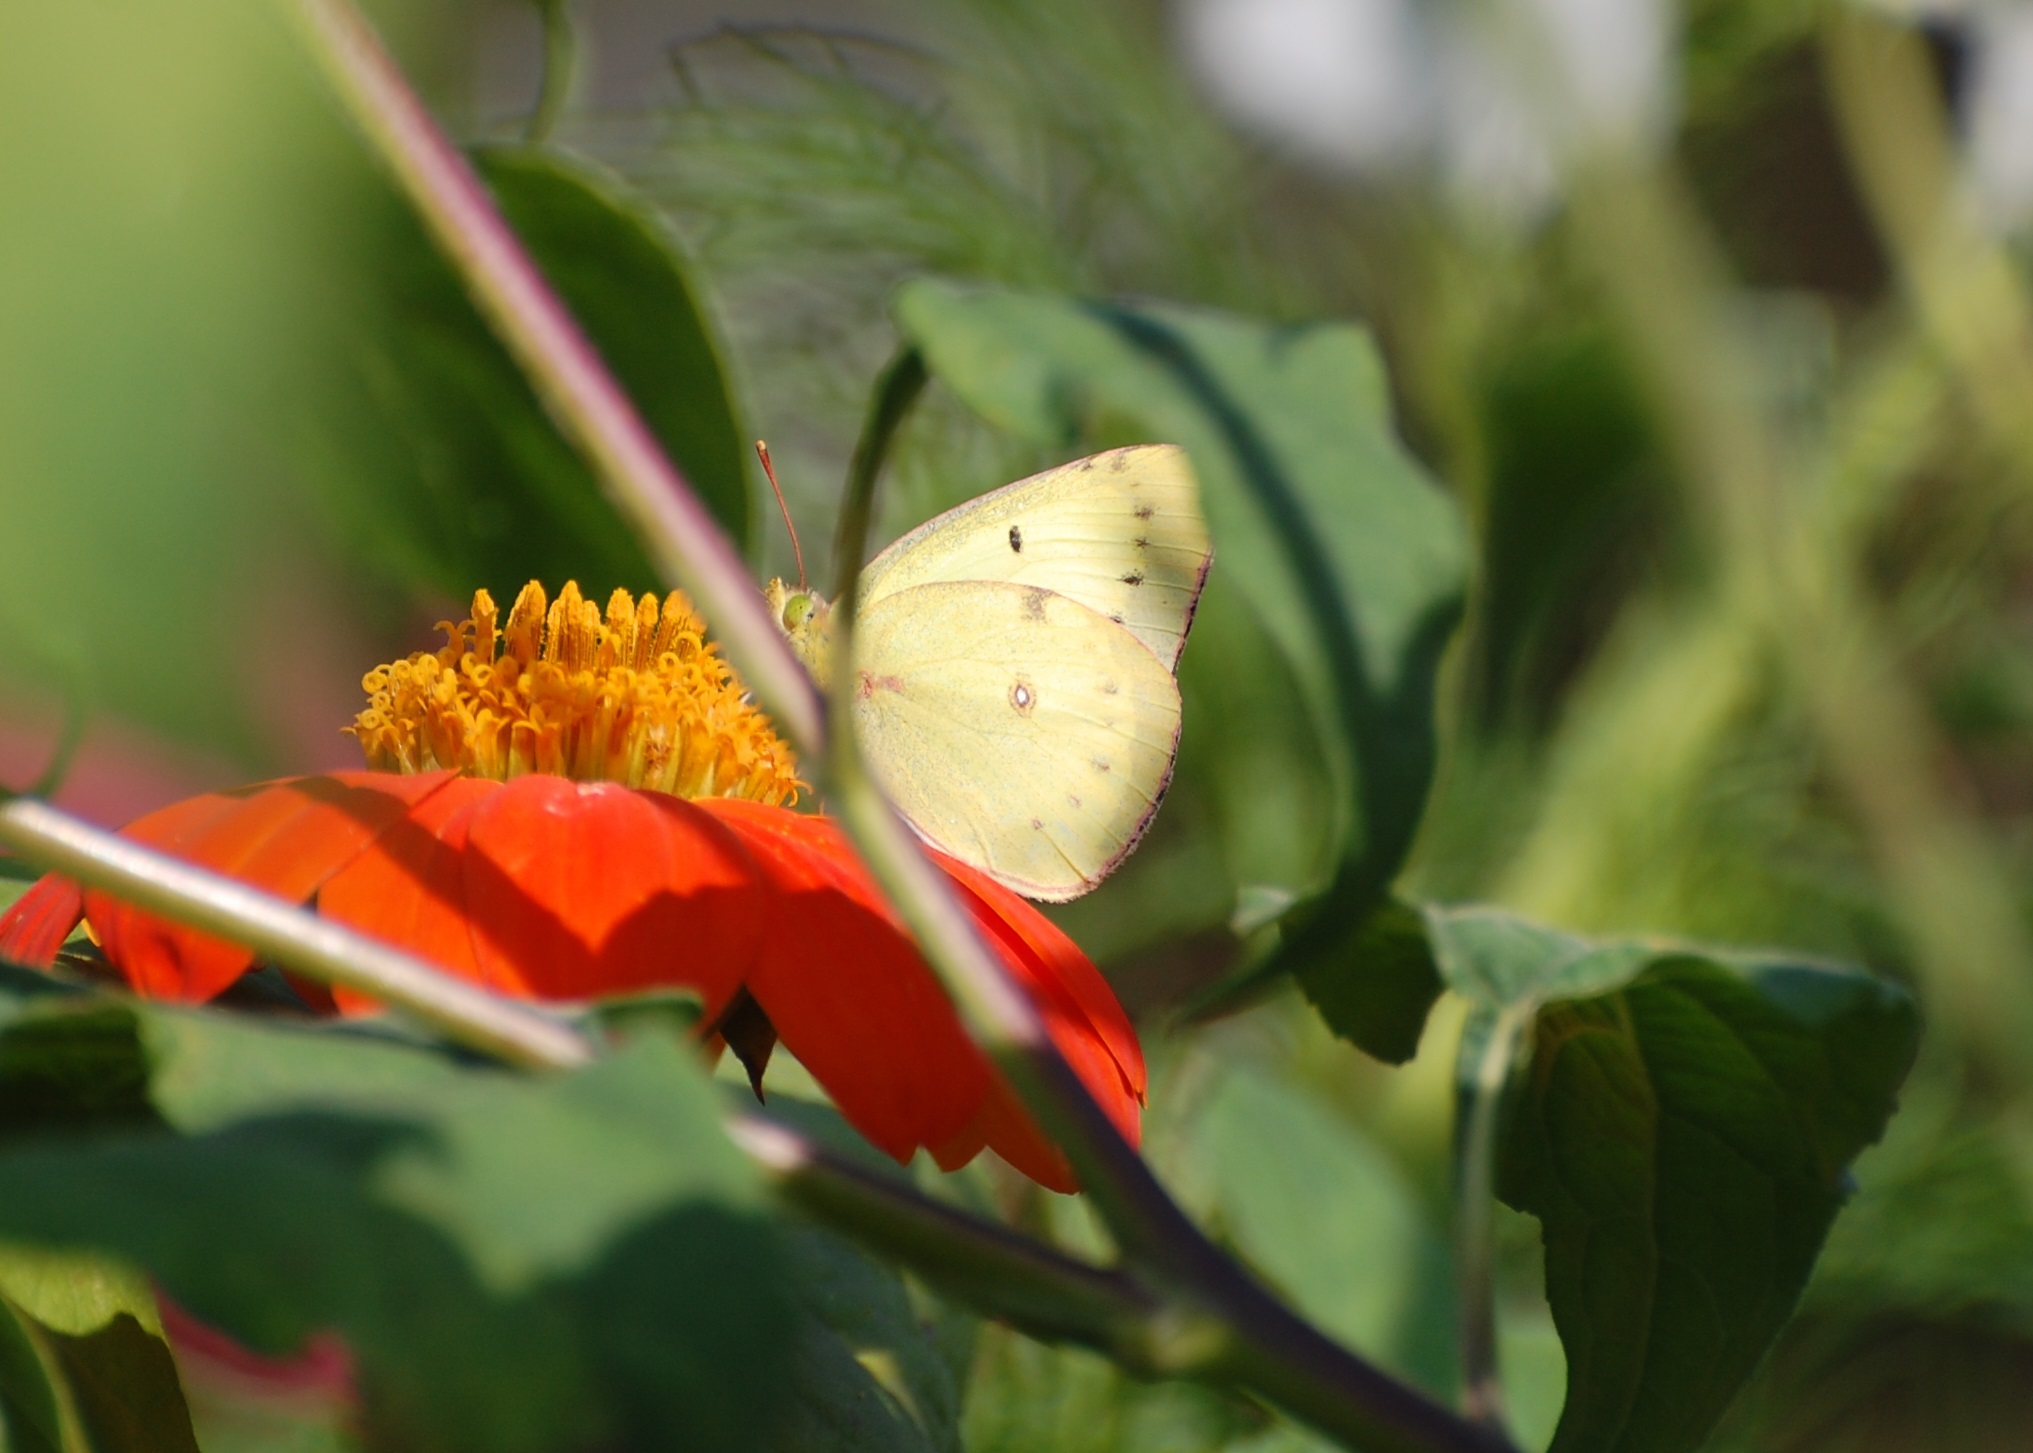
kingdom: Animalia
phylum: Arthropoda
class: Insecta
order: Lepidoptera
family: Pieridae
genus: Colias
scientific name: Colias philodice
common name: Clouded sulphur
